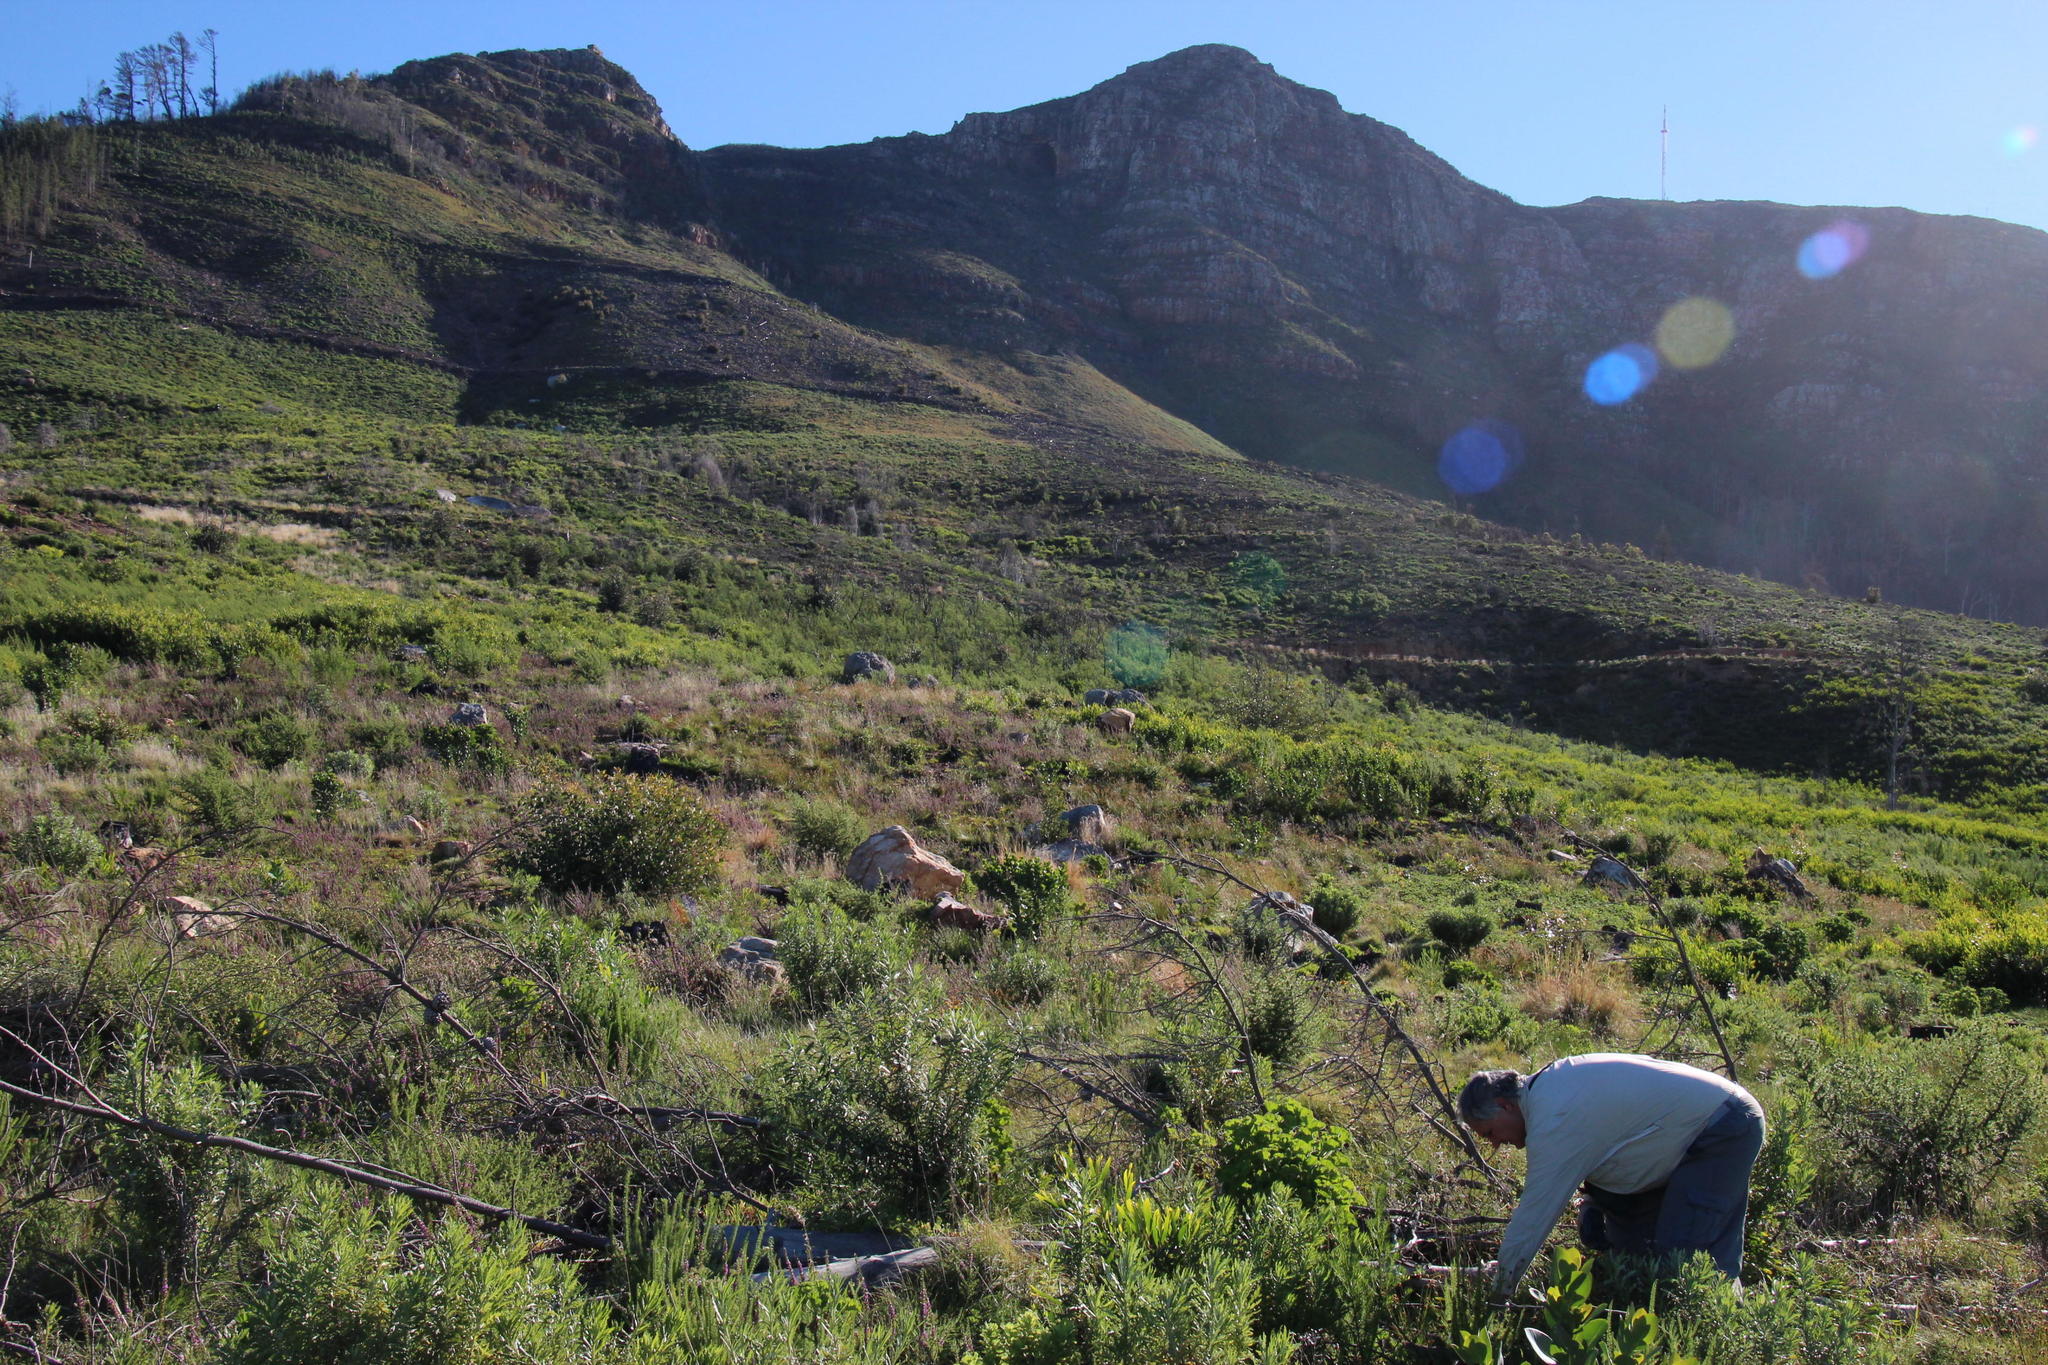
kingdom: Plantae
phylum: Tracheophyta
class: Magnoliopsida
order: Fabales
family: Fabaceae
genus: Acacia
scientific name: Acacia longifolia
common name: Sydney golden wattle
